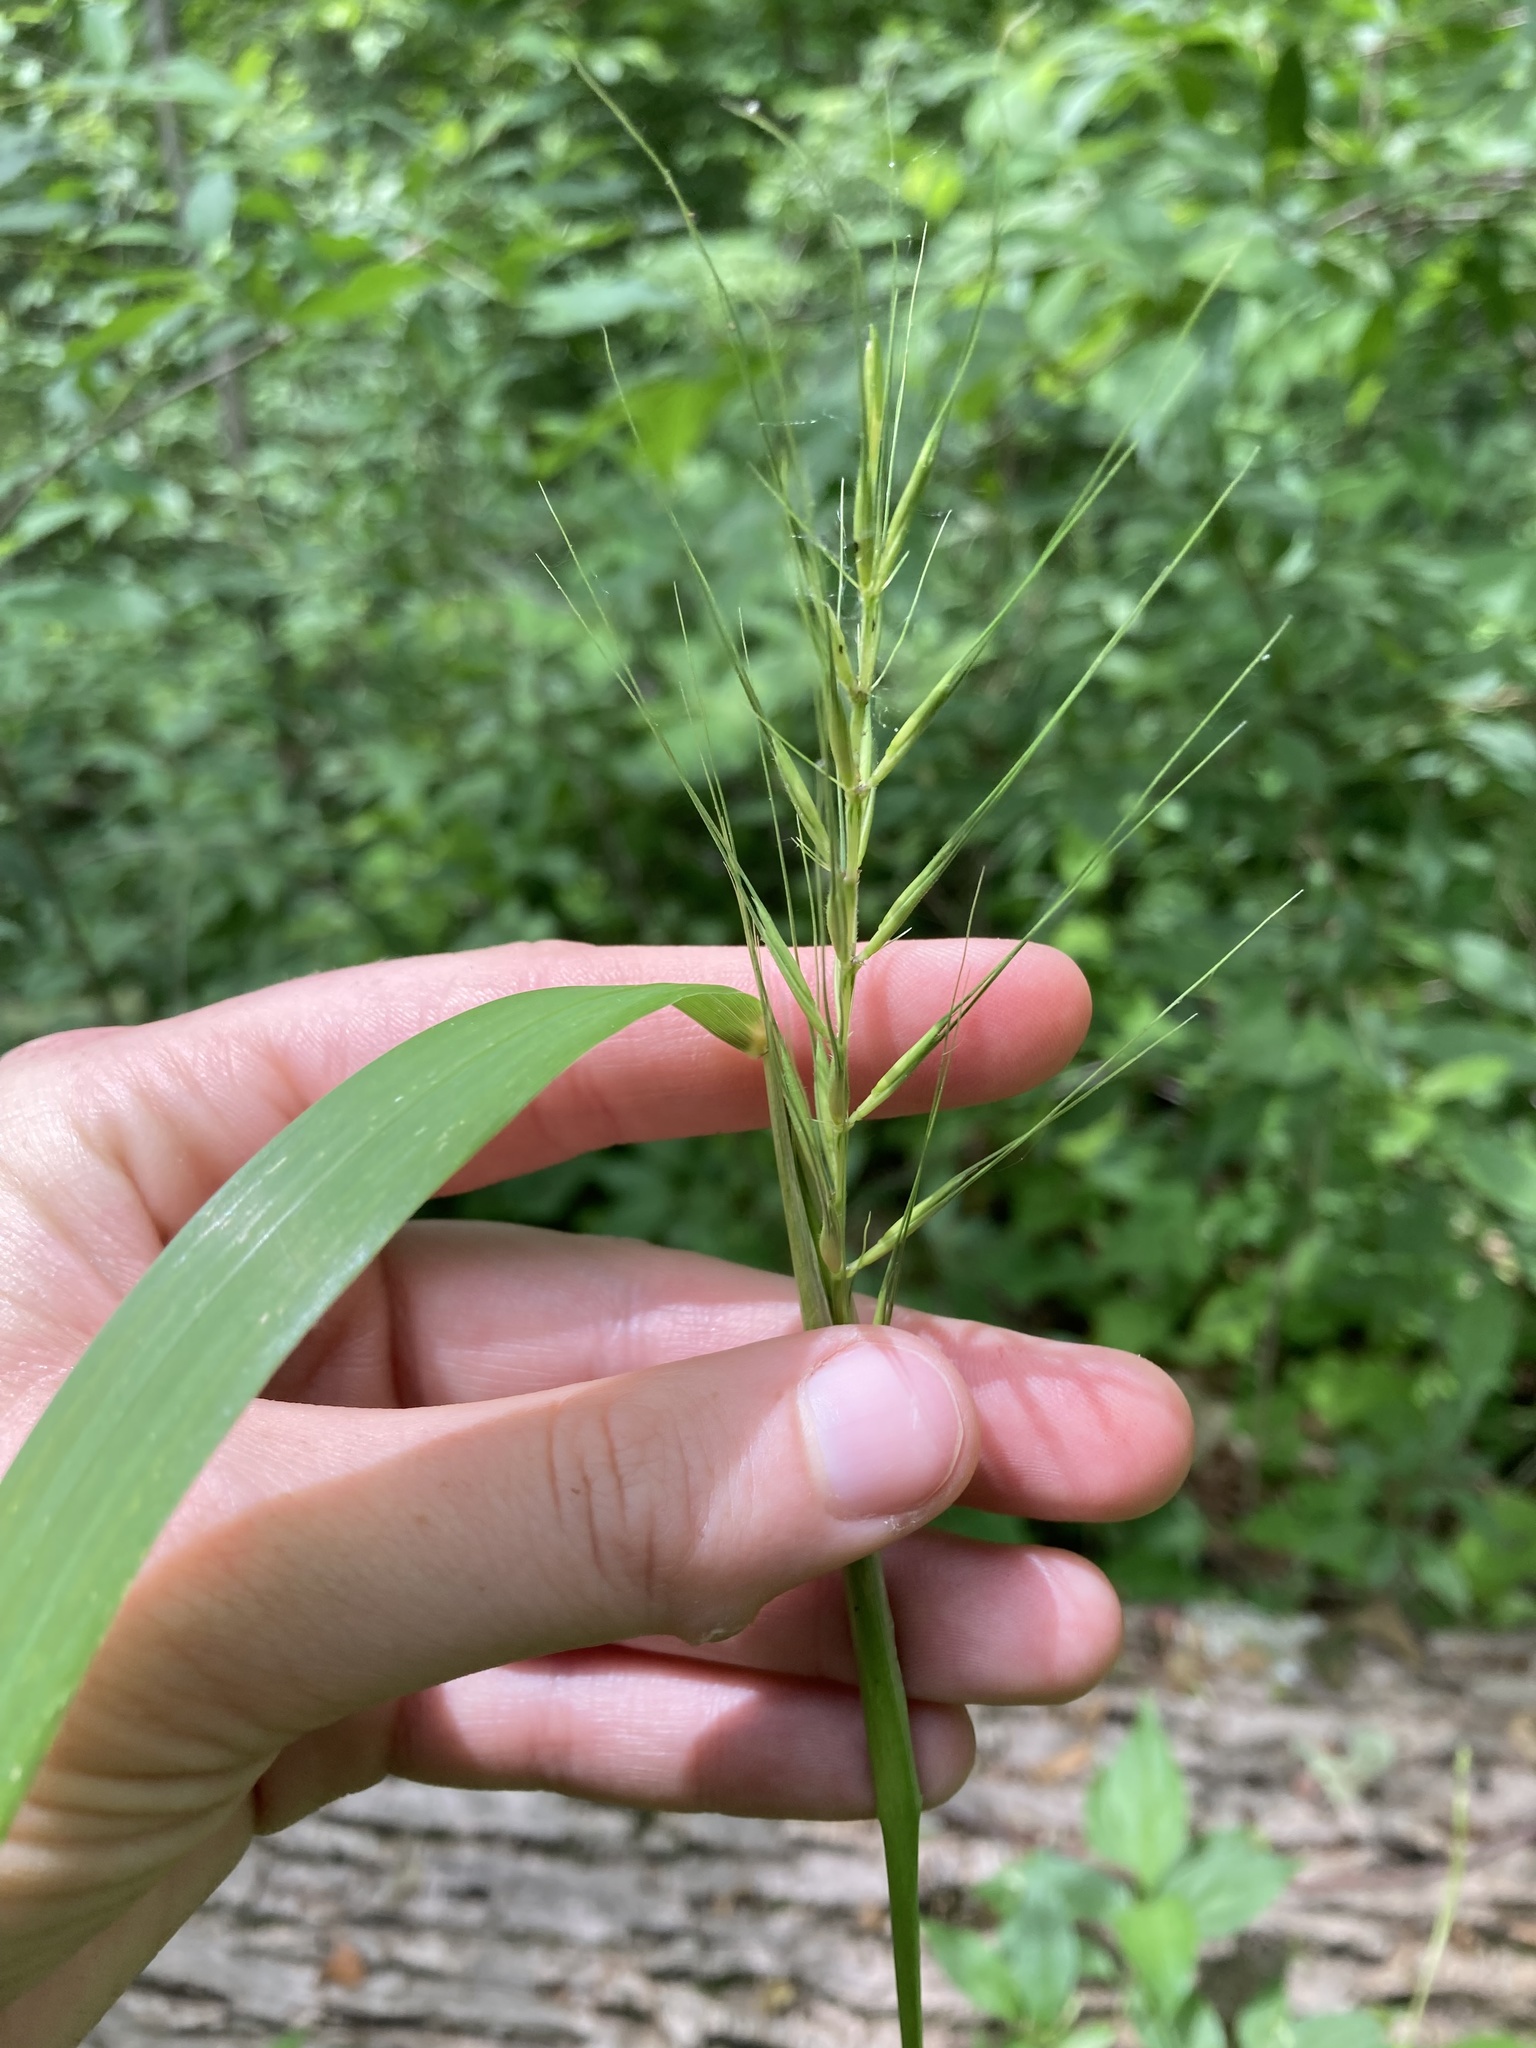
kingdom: Plantae
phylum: Tracheophyta
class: Liliopsida
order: Poales
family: Poaceae
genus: Elymus
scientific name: Elymus hystrix
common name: Bottlebrush grass
